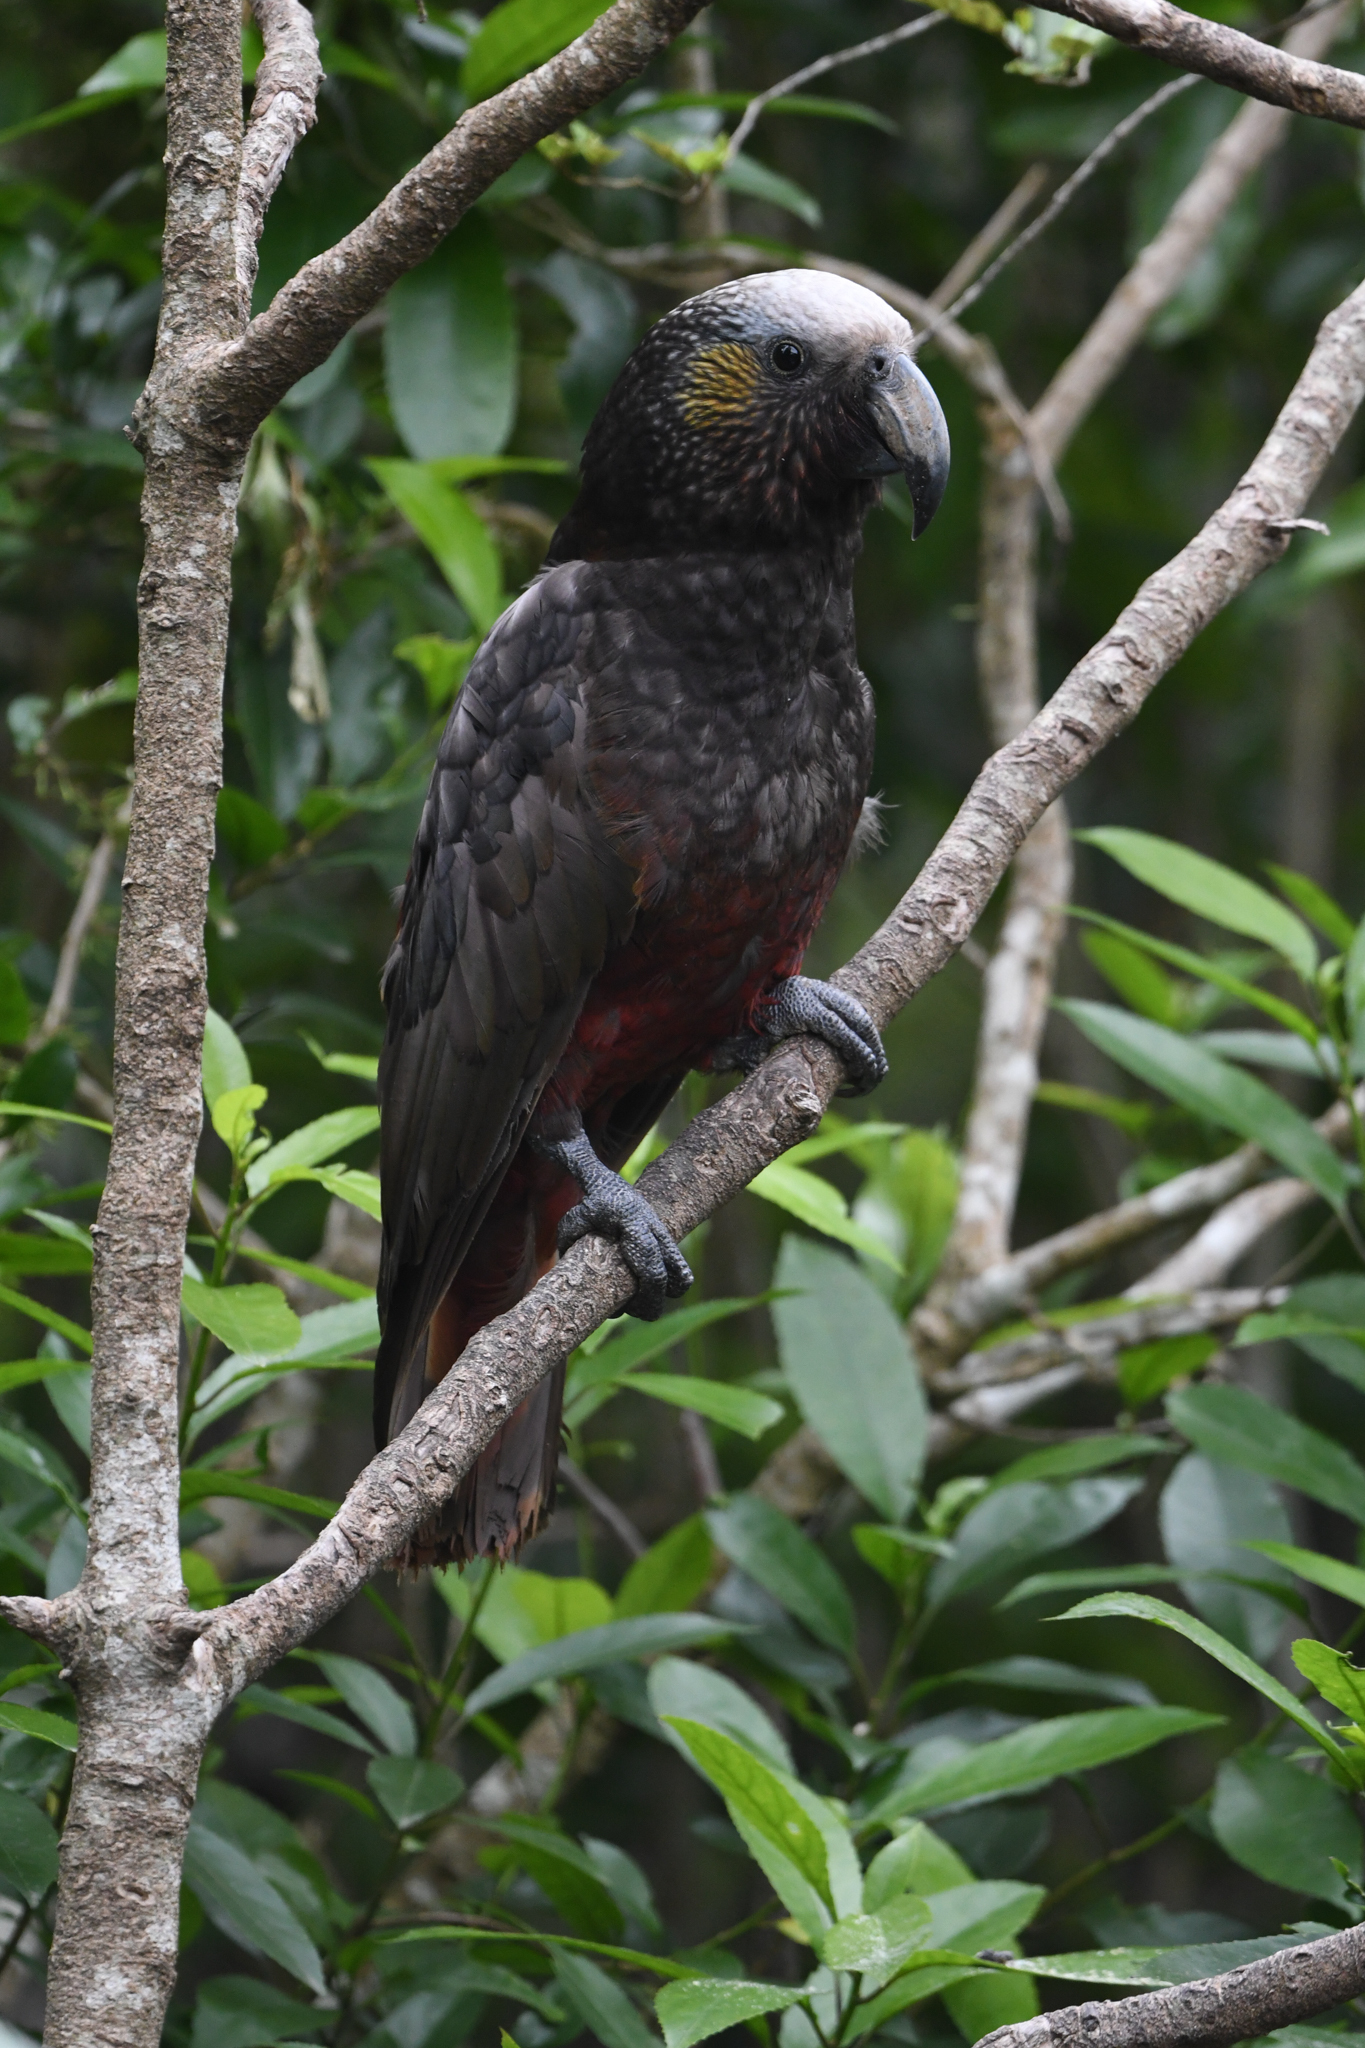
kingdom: Animalia
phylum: Chordata
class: Aves
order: Psittaciformes
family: Psittacidae
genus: Nestor
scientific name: Nestor meridionalis
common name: New zealand kaka
